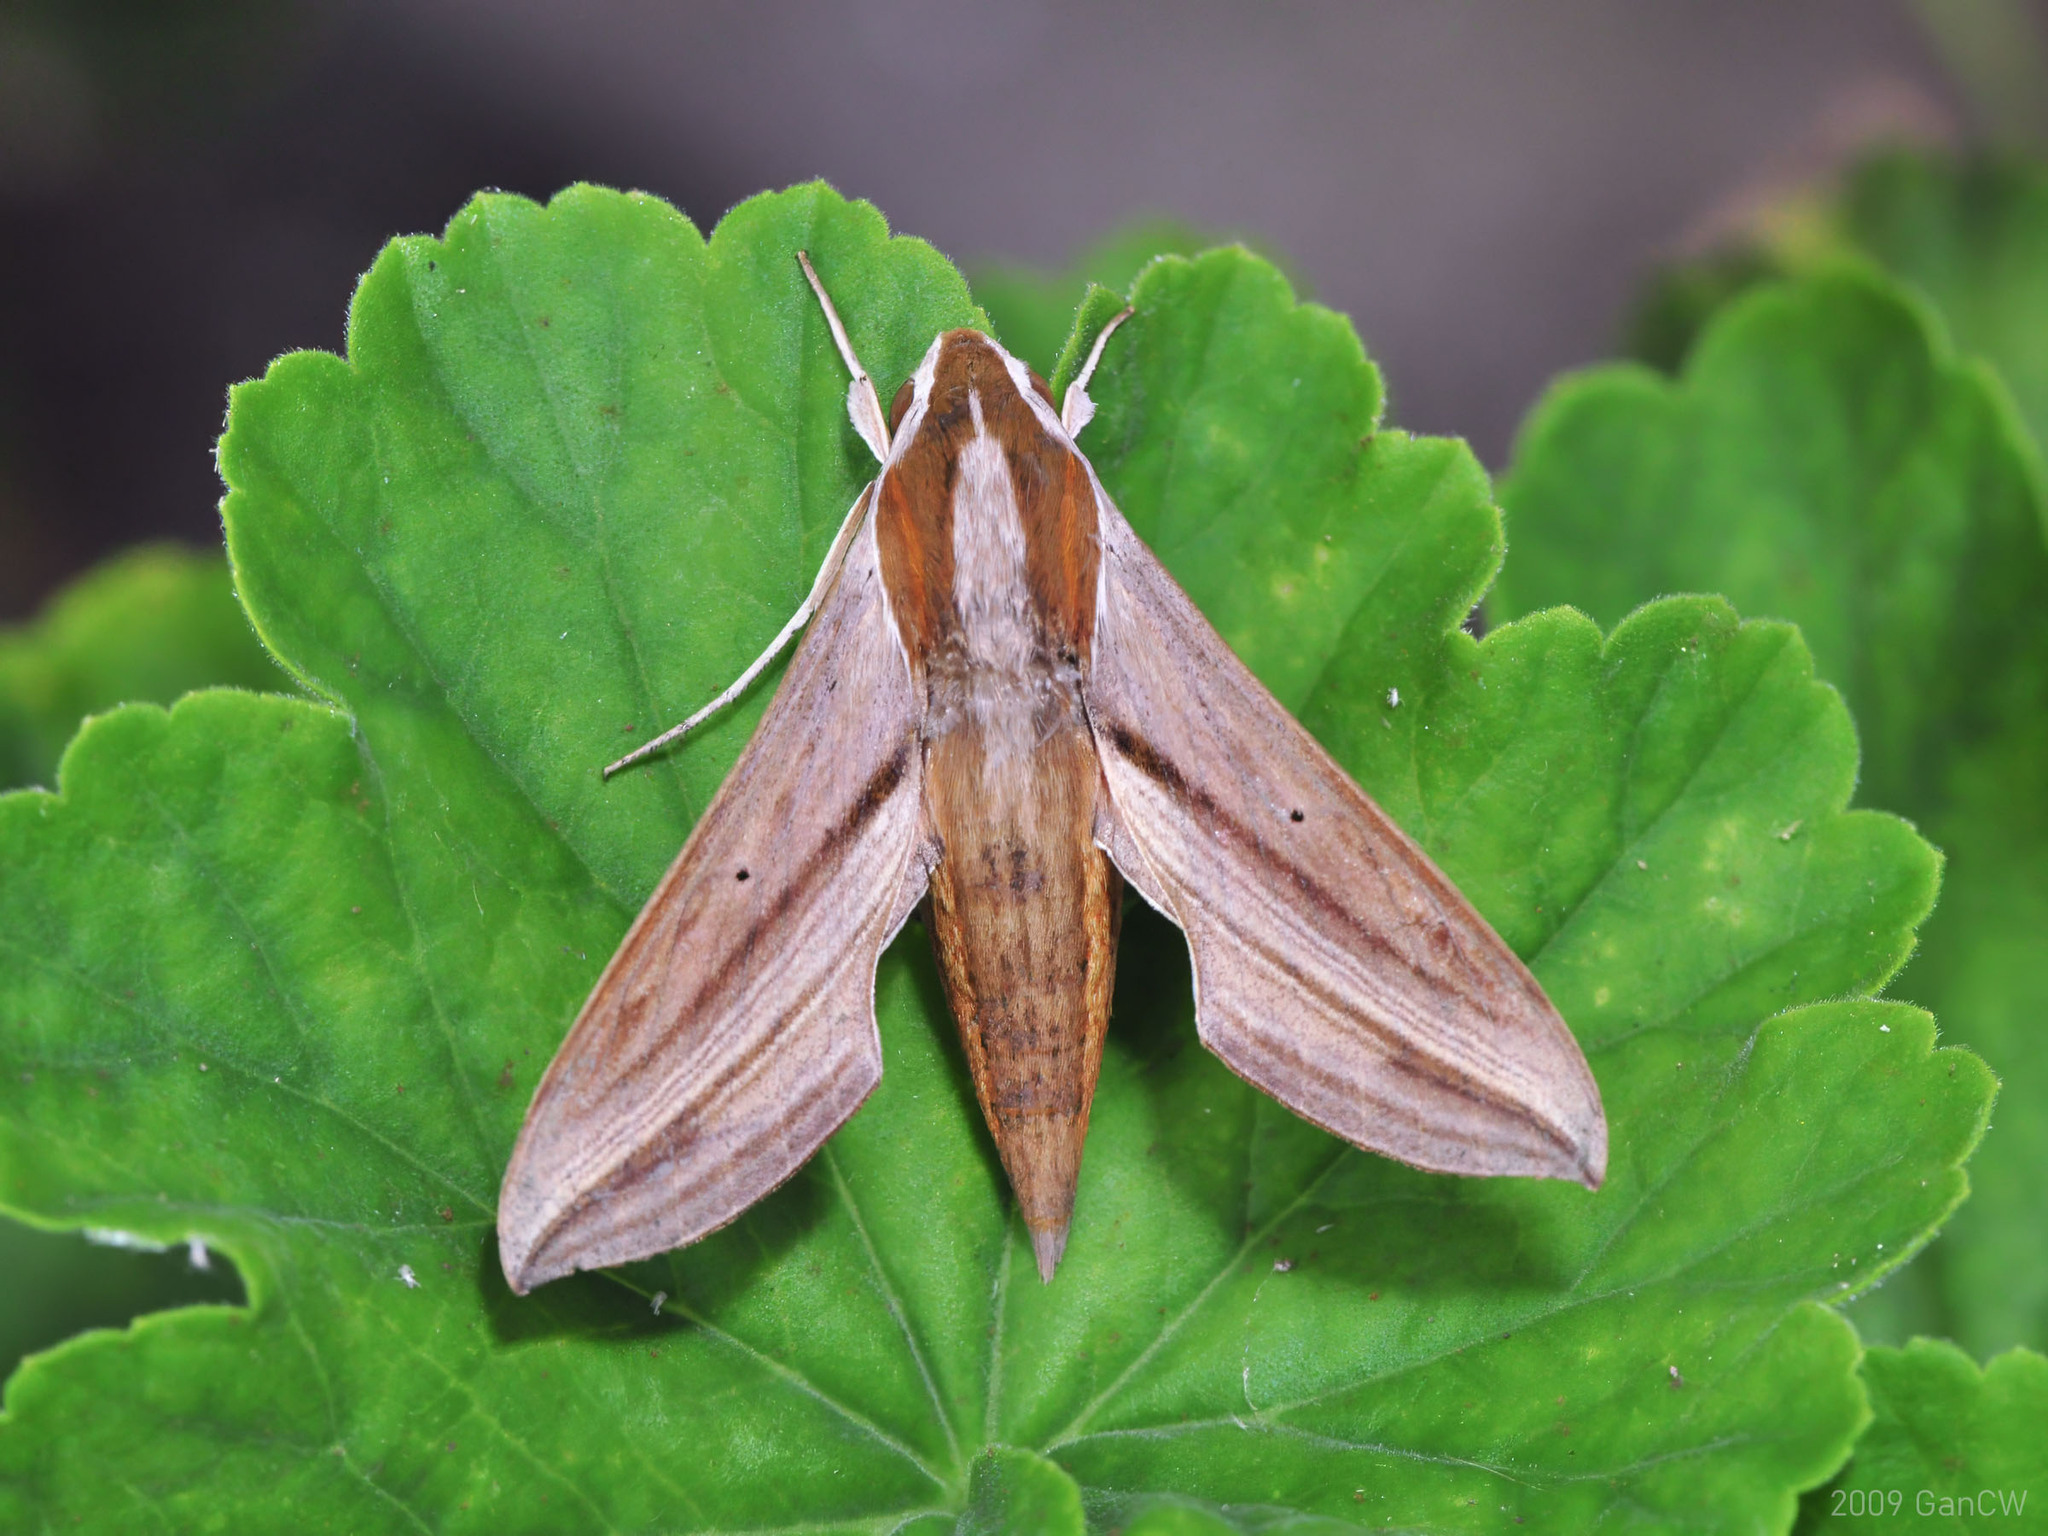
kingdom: Animalia
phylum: Arthropoda
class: Insecta
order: Lepidoptera
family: Sphingidae
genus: Hippotion
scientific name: Hippotion boerhaviae
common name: Hippotion sphinx moth
